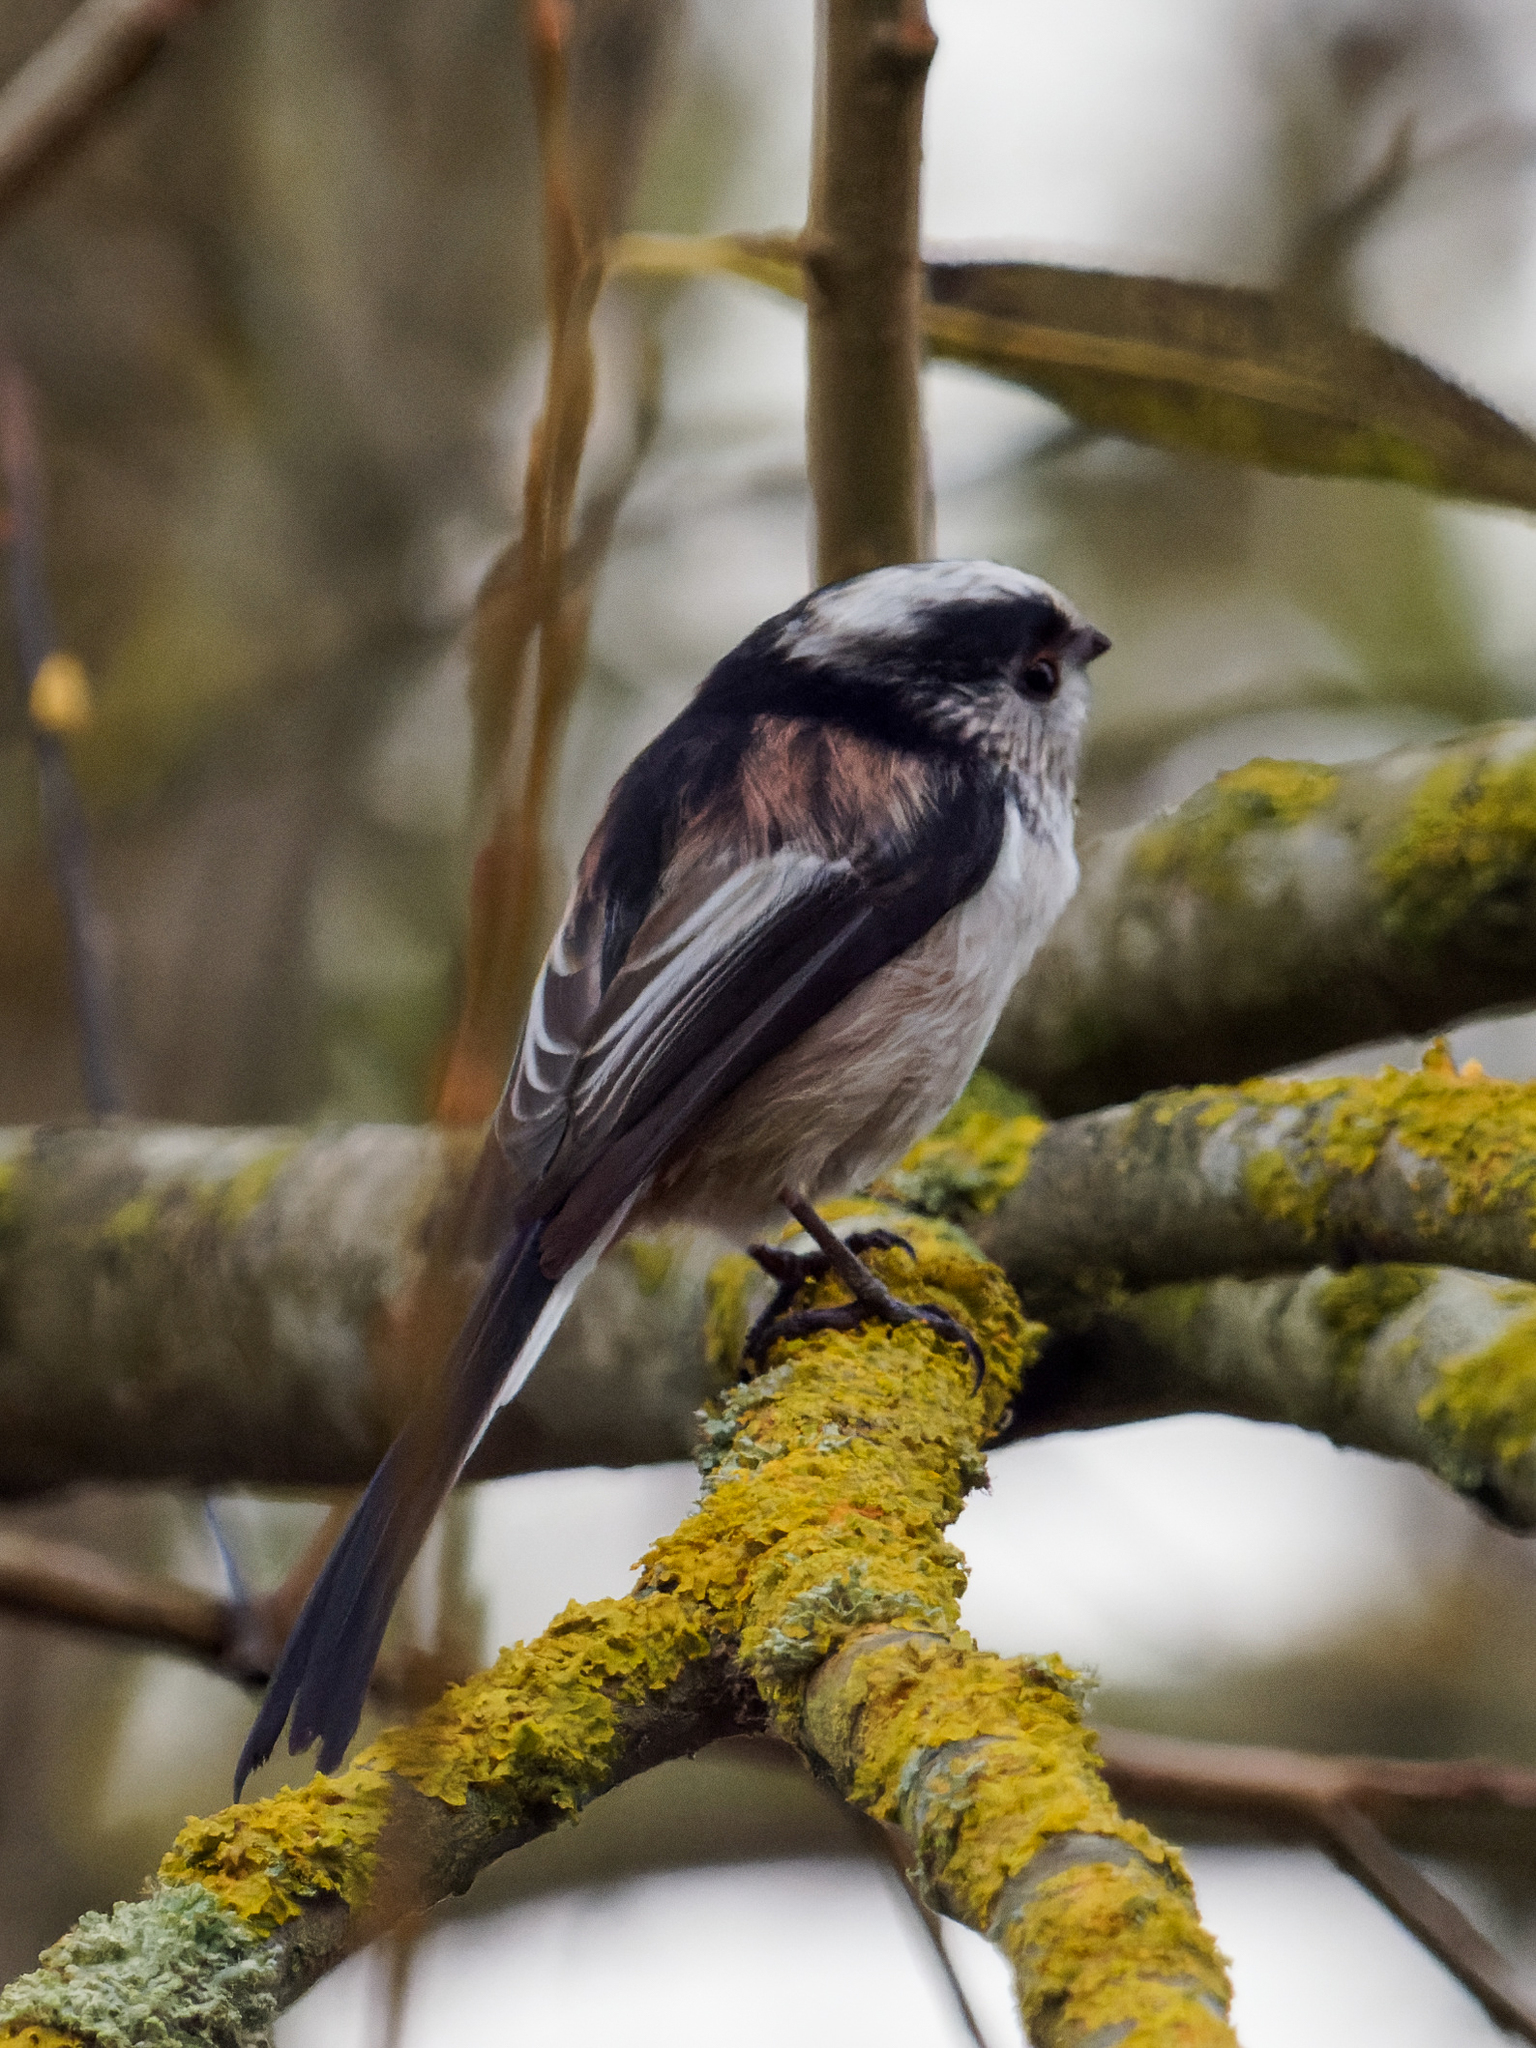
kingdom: Animalia
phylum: Chordata
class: Aves
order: Passeriformes
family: Aegithalidae
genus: Aegithalos
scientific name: Aegithalos caudatus
